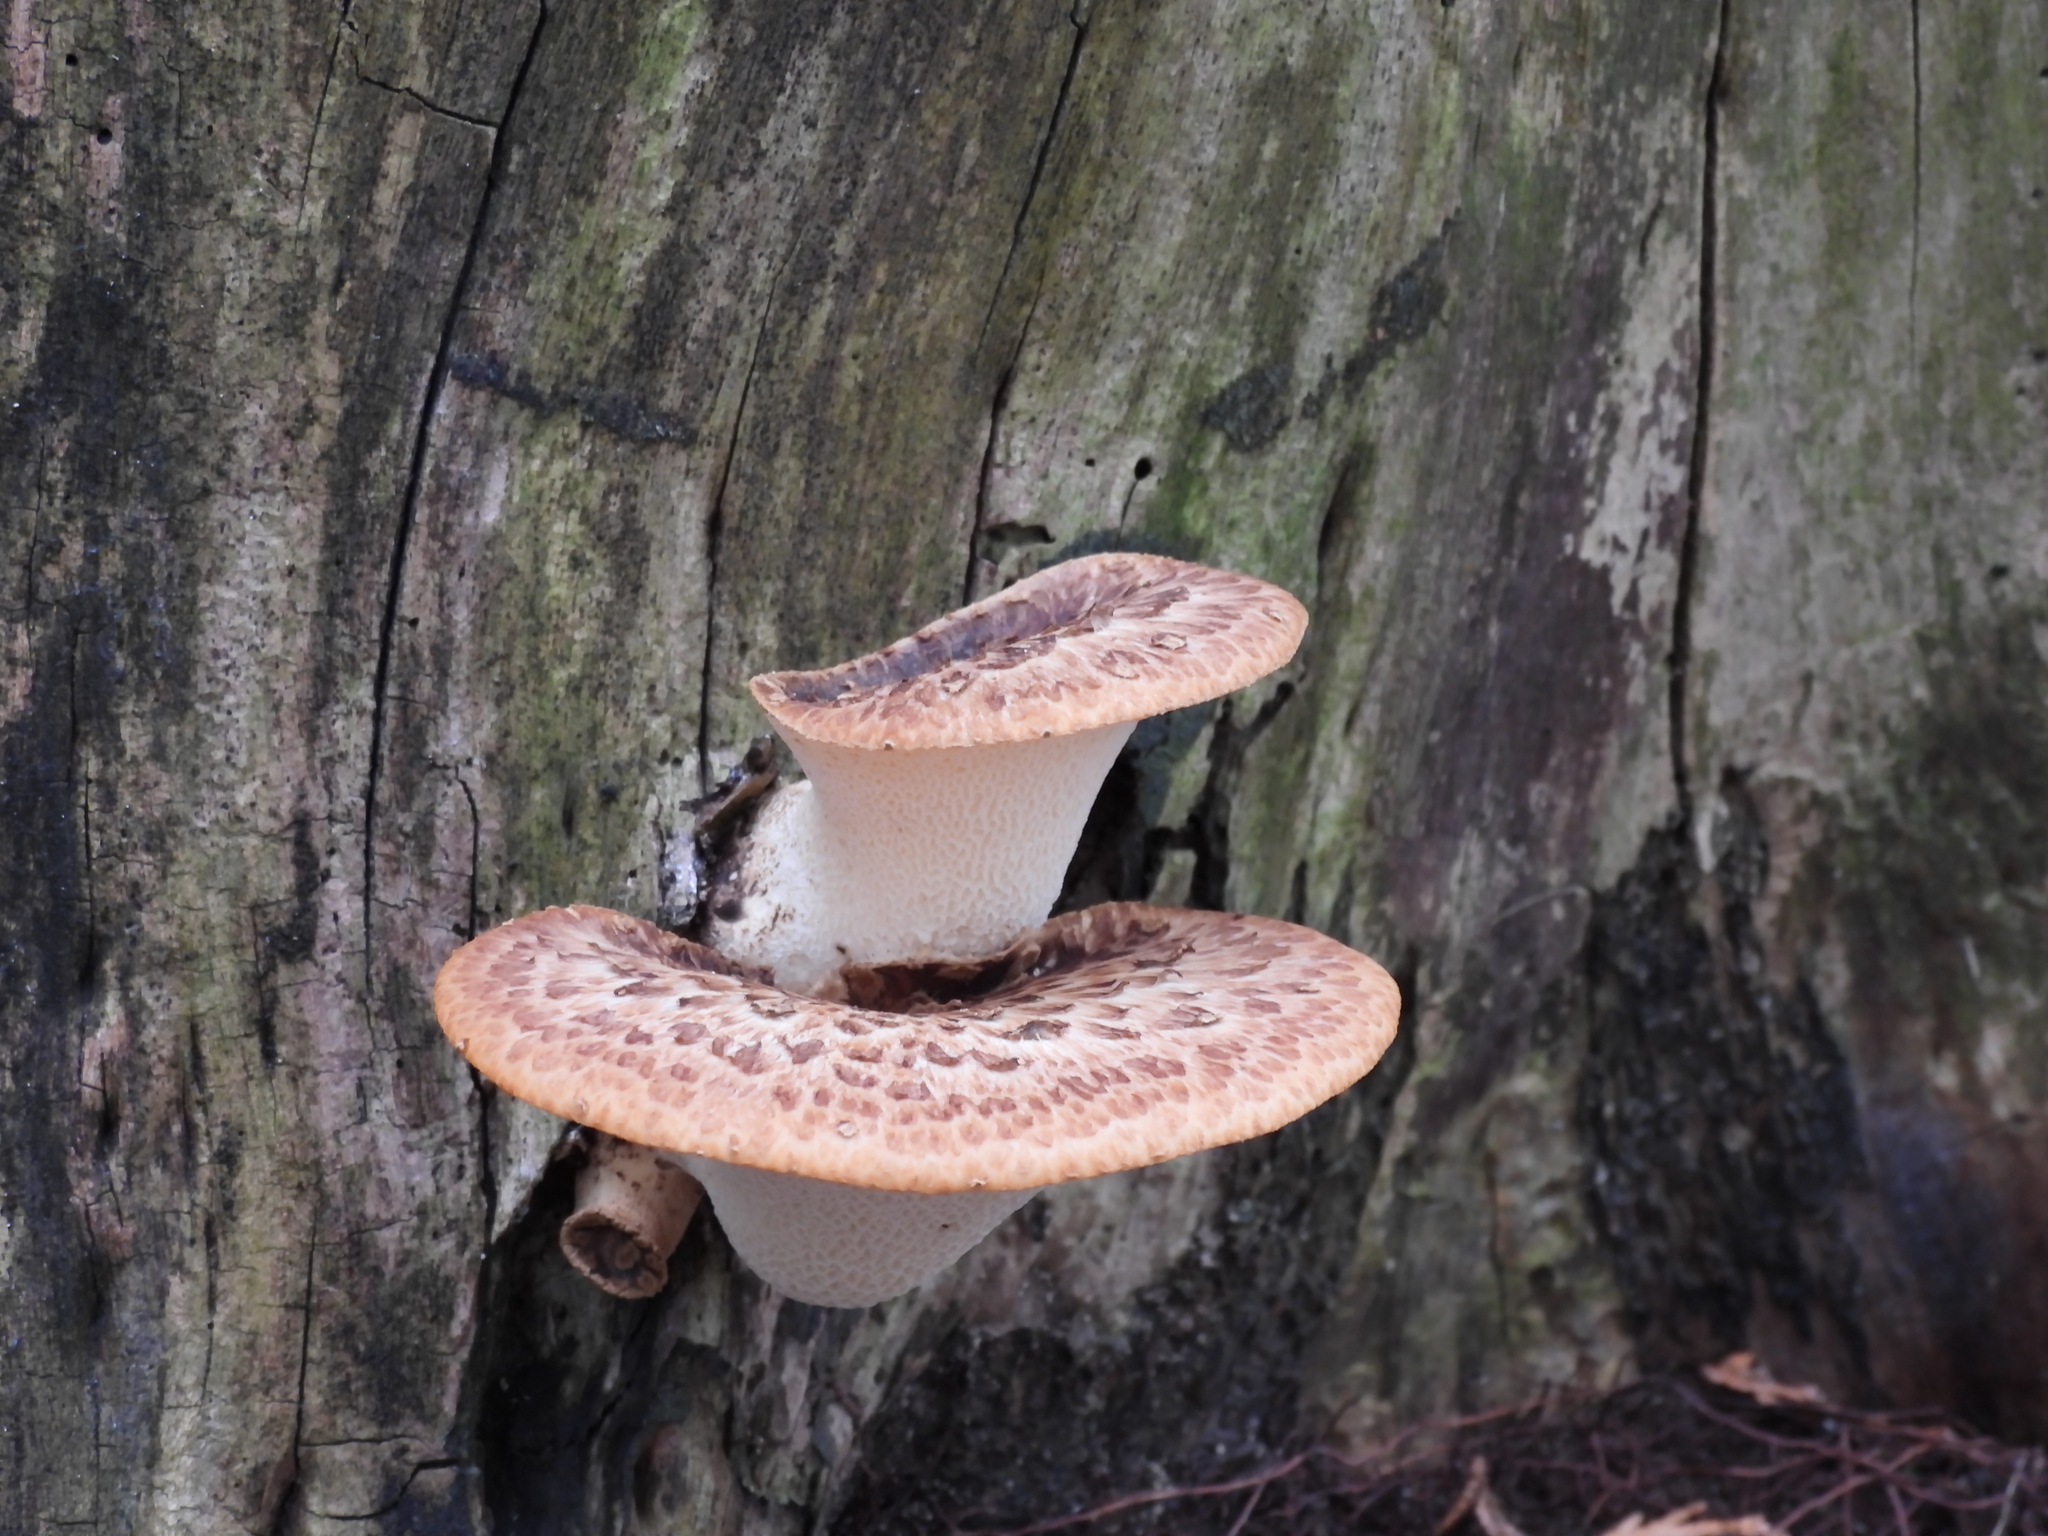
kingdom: Fungi
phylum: Basidiomycota
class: Agaricomycetes
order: Polyporales
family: Polyporaceae
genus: Cerioporus
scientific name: Cerioporus squamosus
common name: Dryad's saddle
